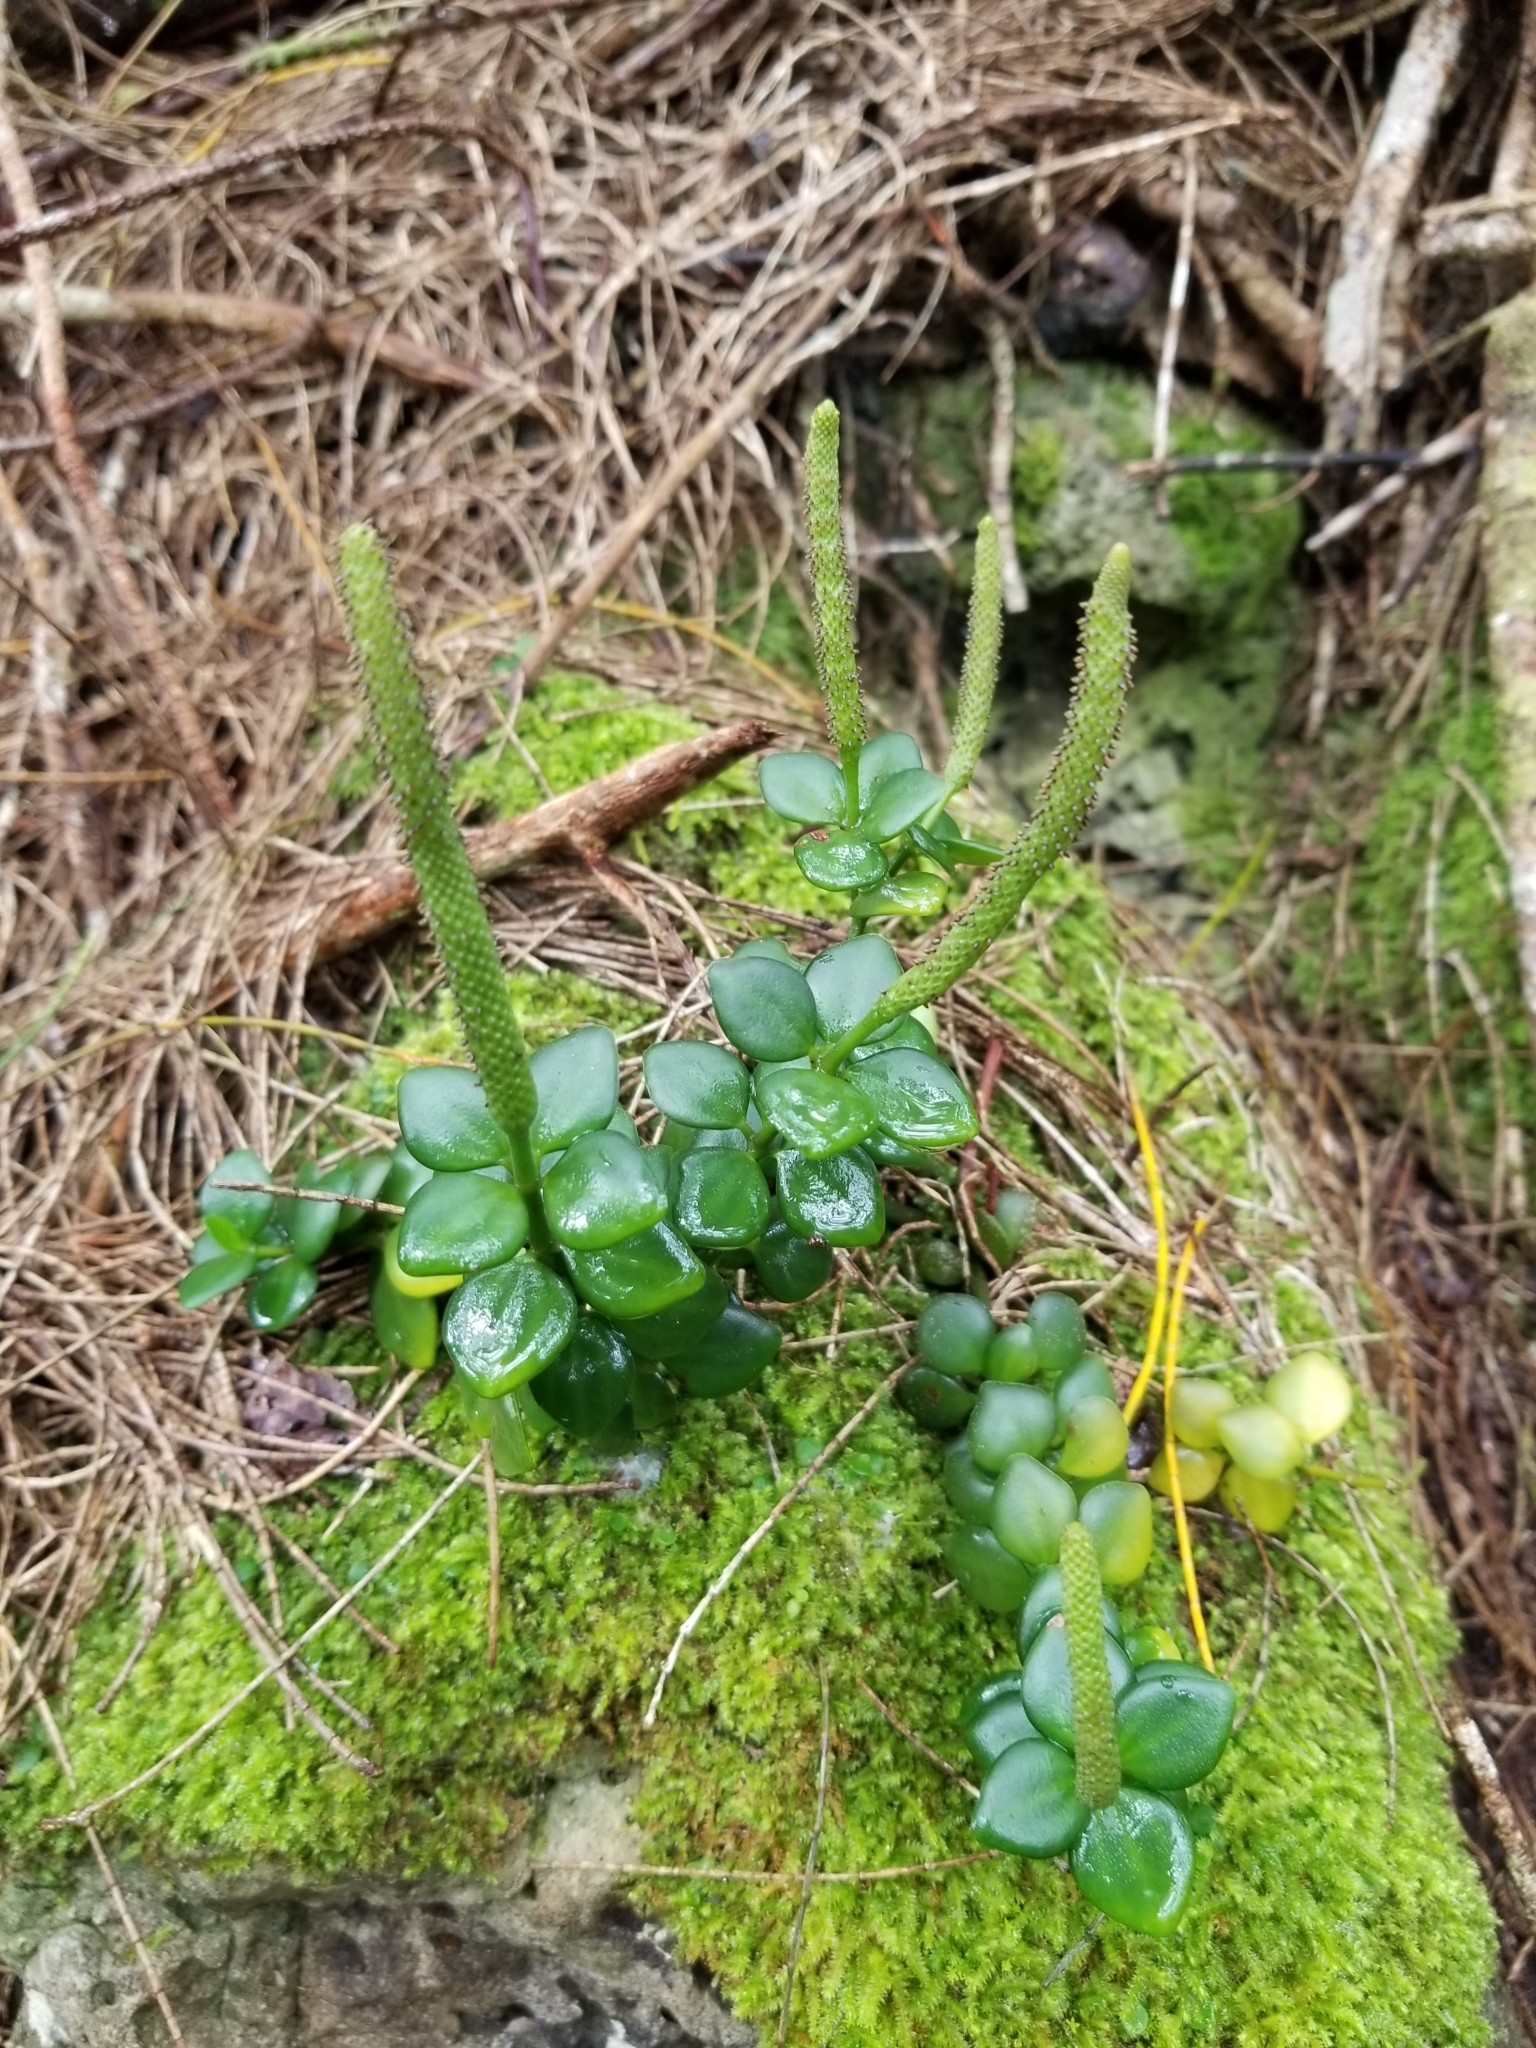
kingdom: Plantae
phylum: Tracheophyta
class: Magnoliopsida
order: Piperales
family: Piperaceae
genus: Peperomia
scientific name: Peperomia tetraphylla
